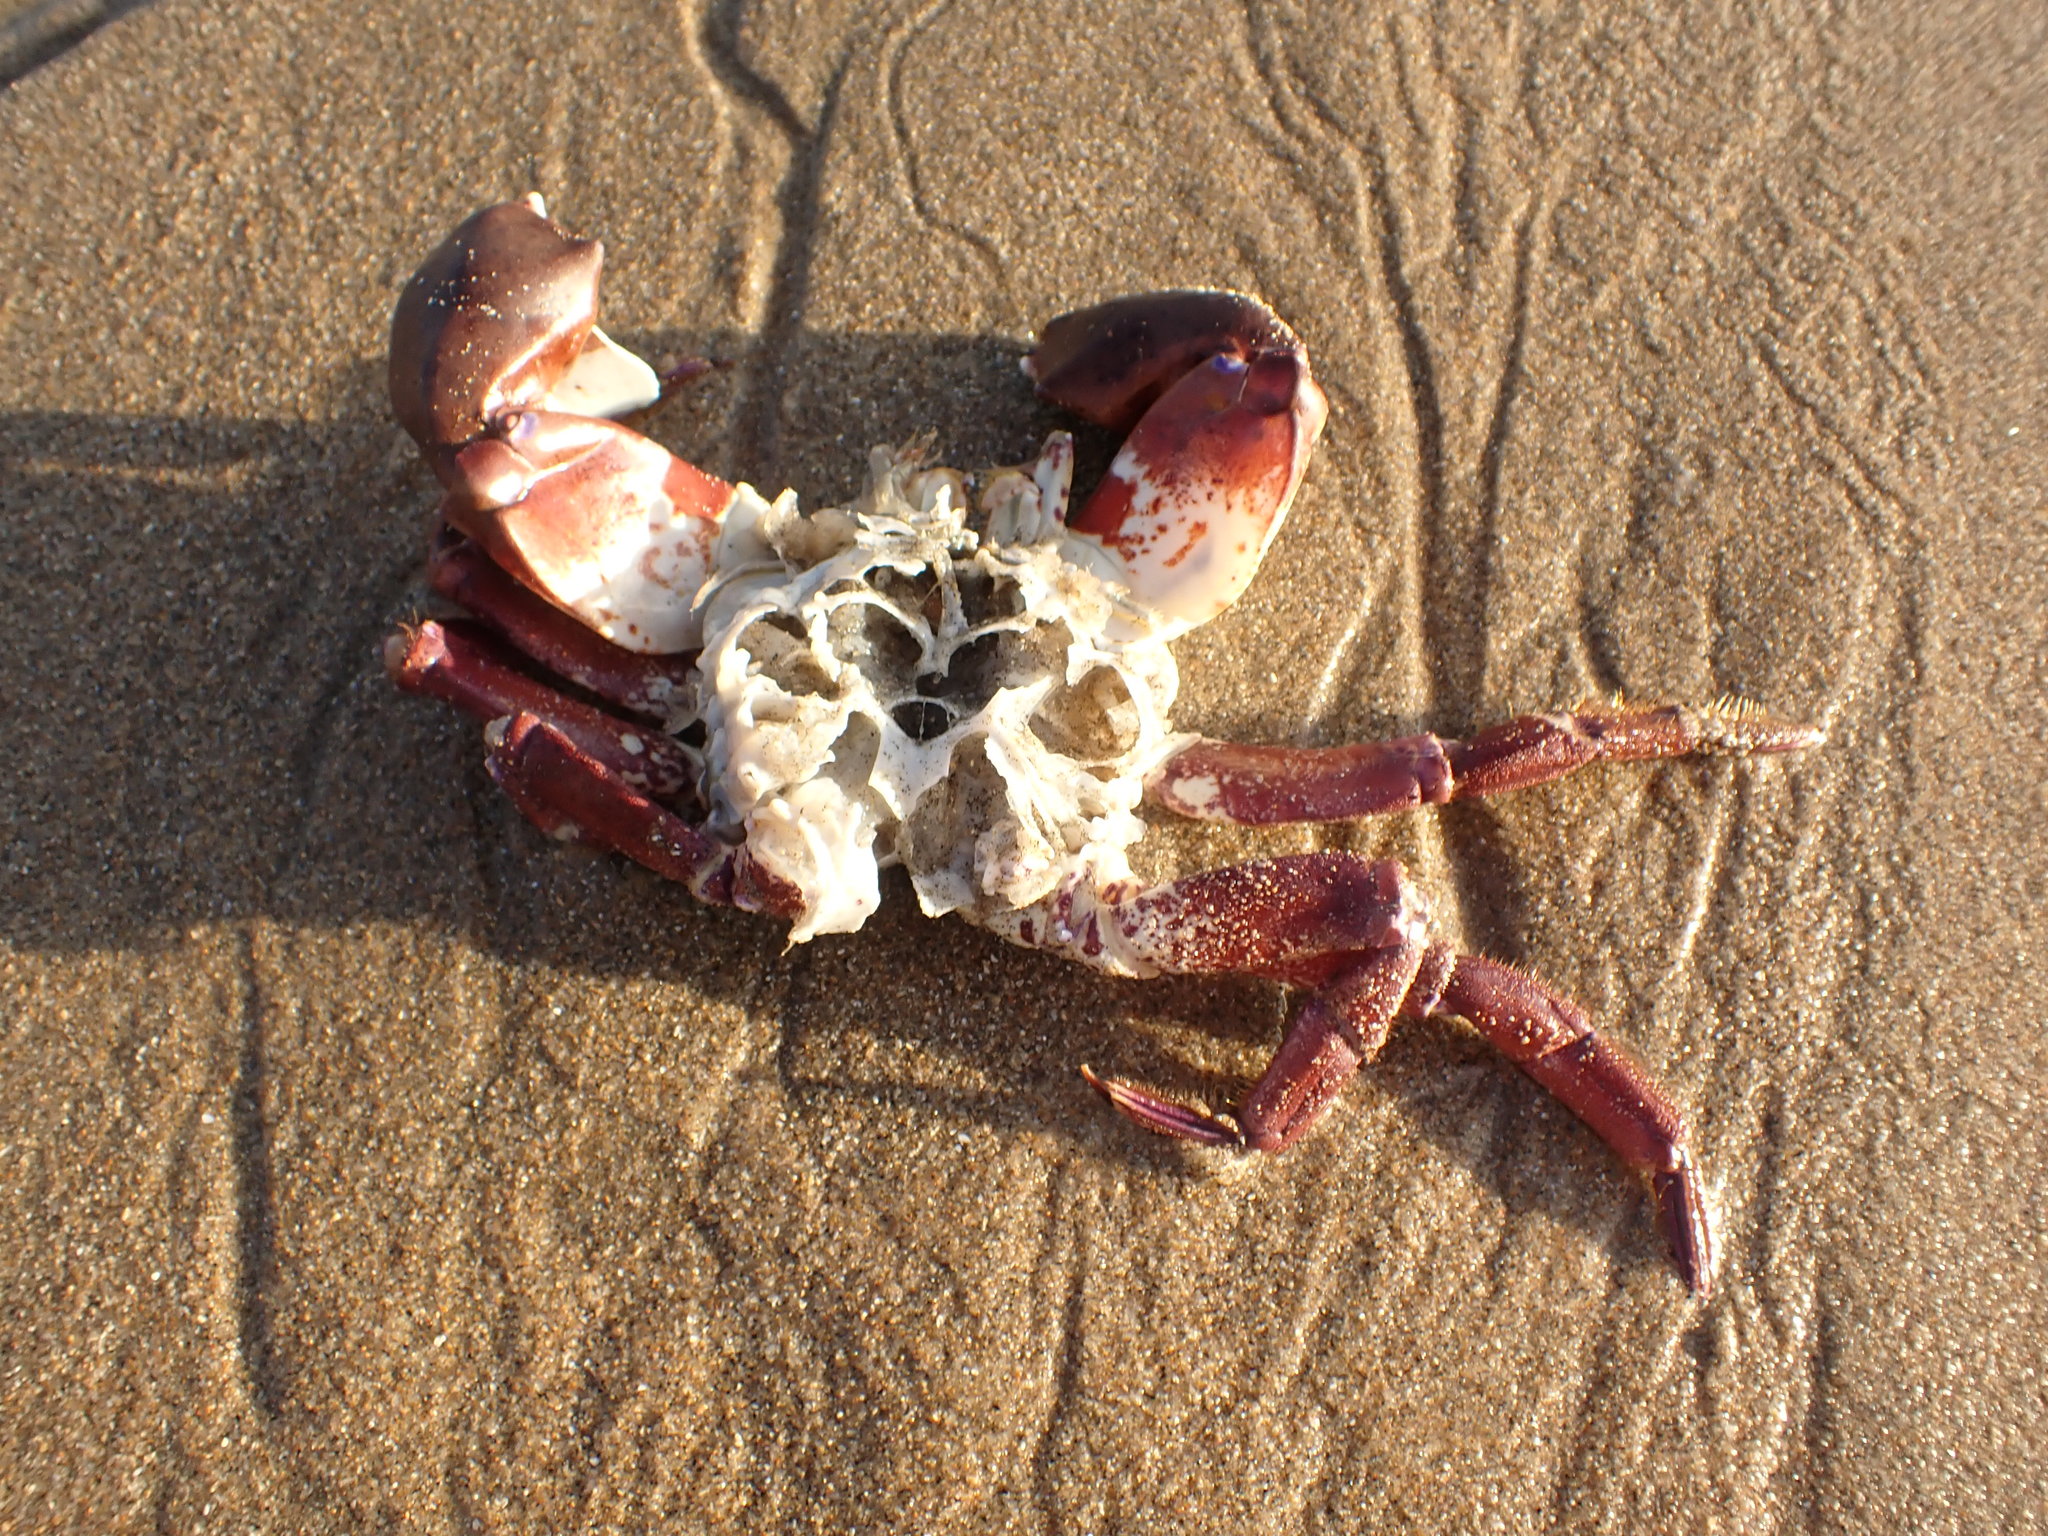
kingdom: Animalia
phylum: Arthropoda
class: Malacostraca
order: Decapoda
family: Cancridae
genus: Romaleon
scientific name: Romaleon antennarium
